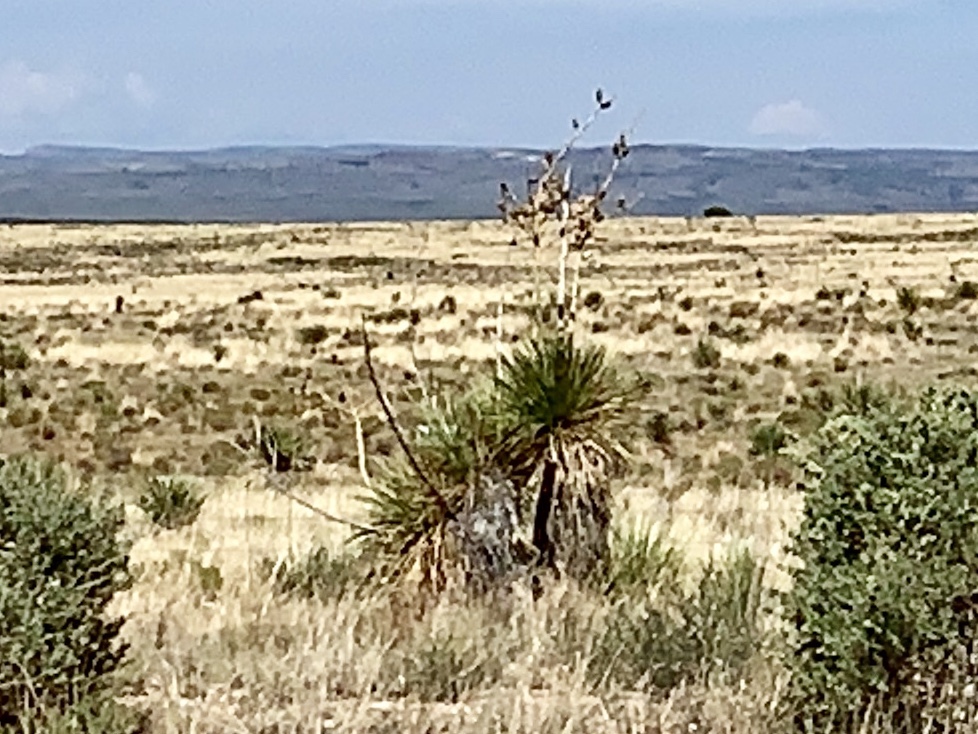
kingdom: Plantae
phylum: Tracheophyta
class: Liliopsida
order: Asparagales
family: Asparagaceae
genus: Yucca
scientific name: Yucca elata
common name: Palmella
